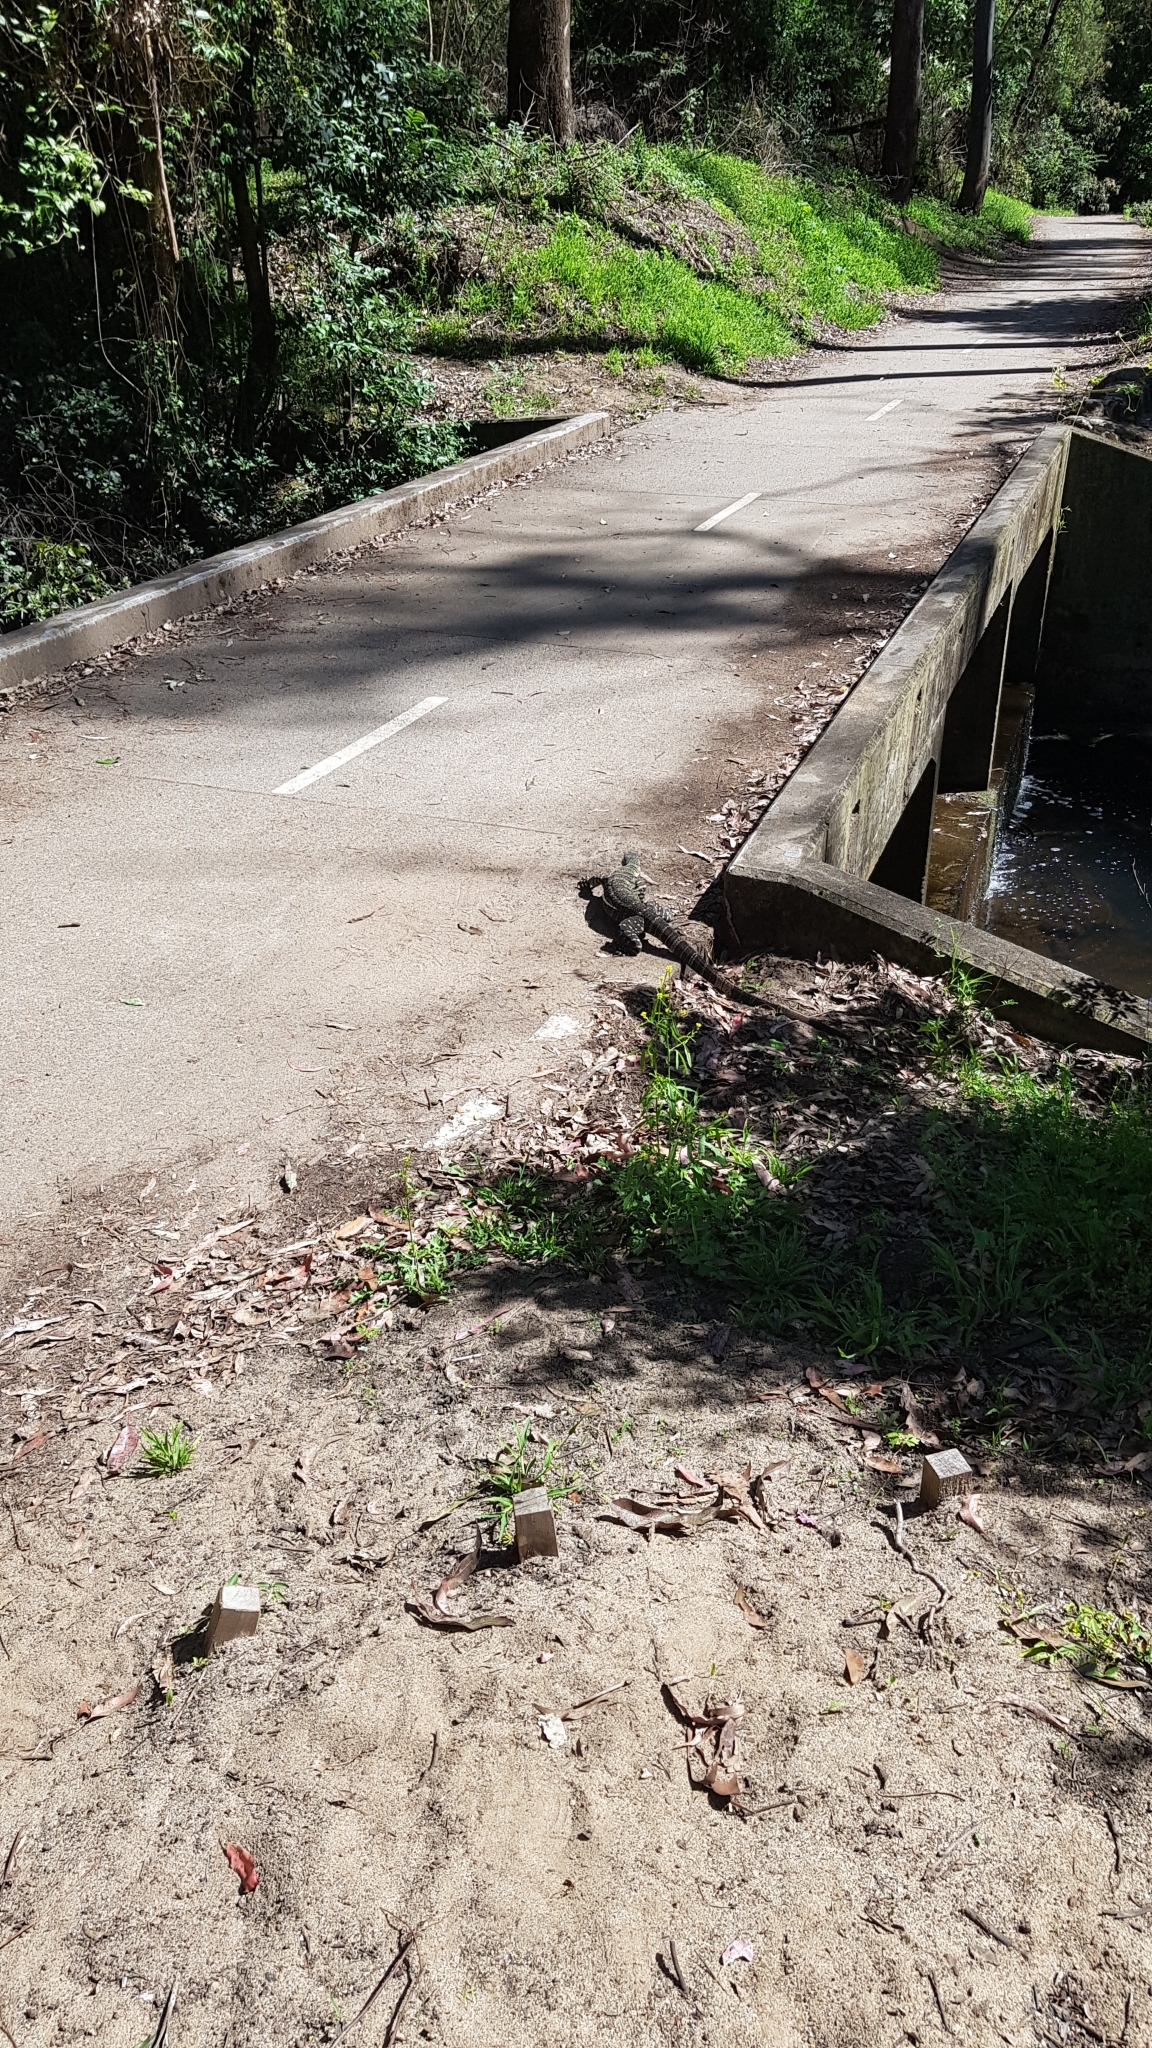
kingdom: Animalia
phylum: Chordata
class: Squamata
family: Varanidae
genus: Varanus
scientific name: Varanus varius
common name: Lace monitor
